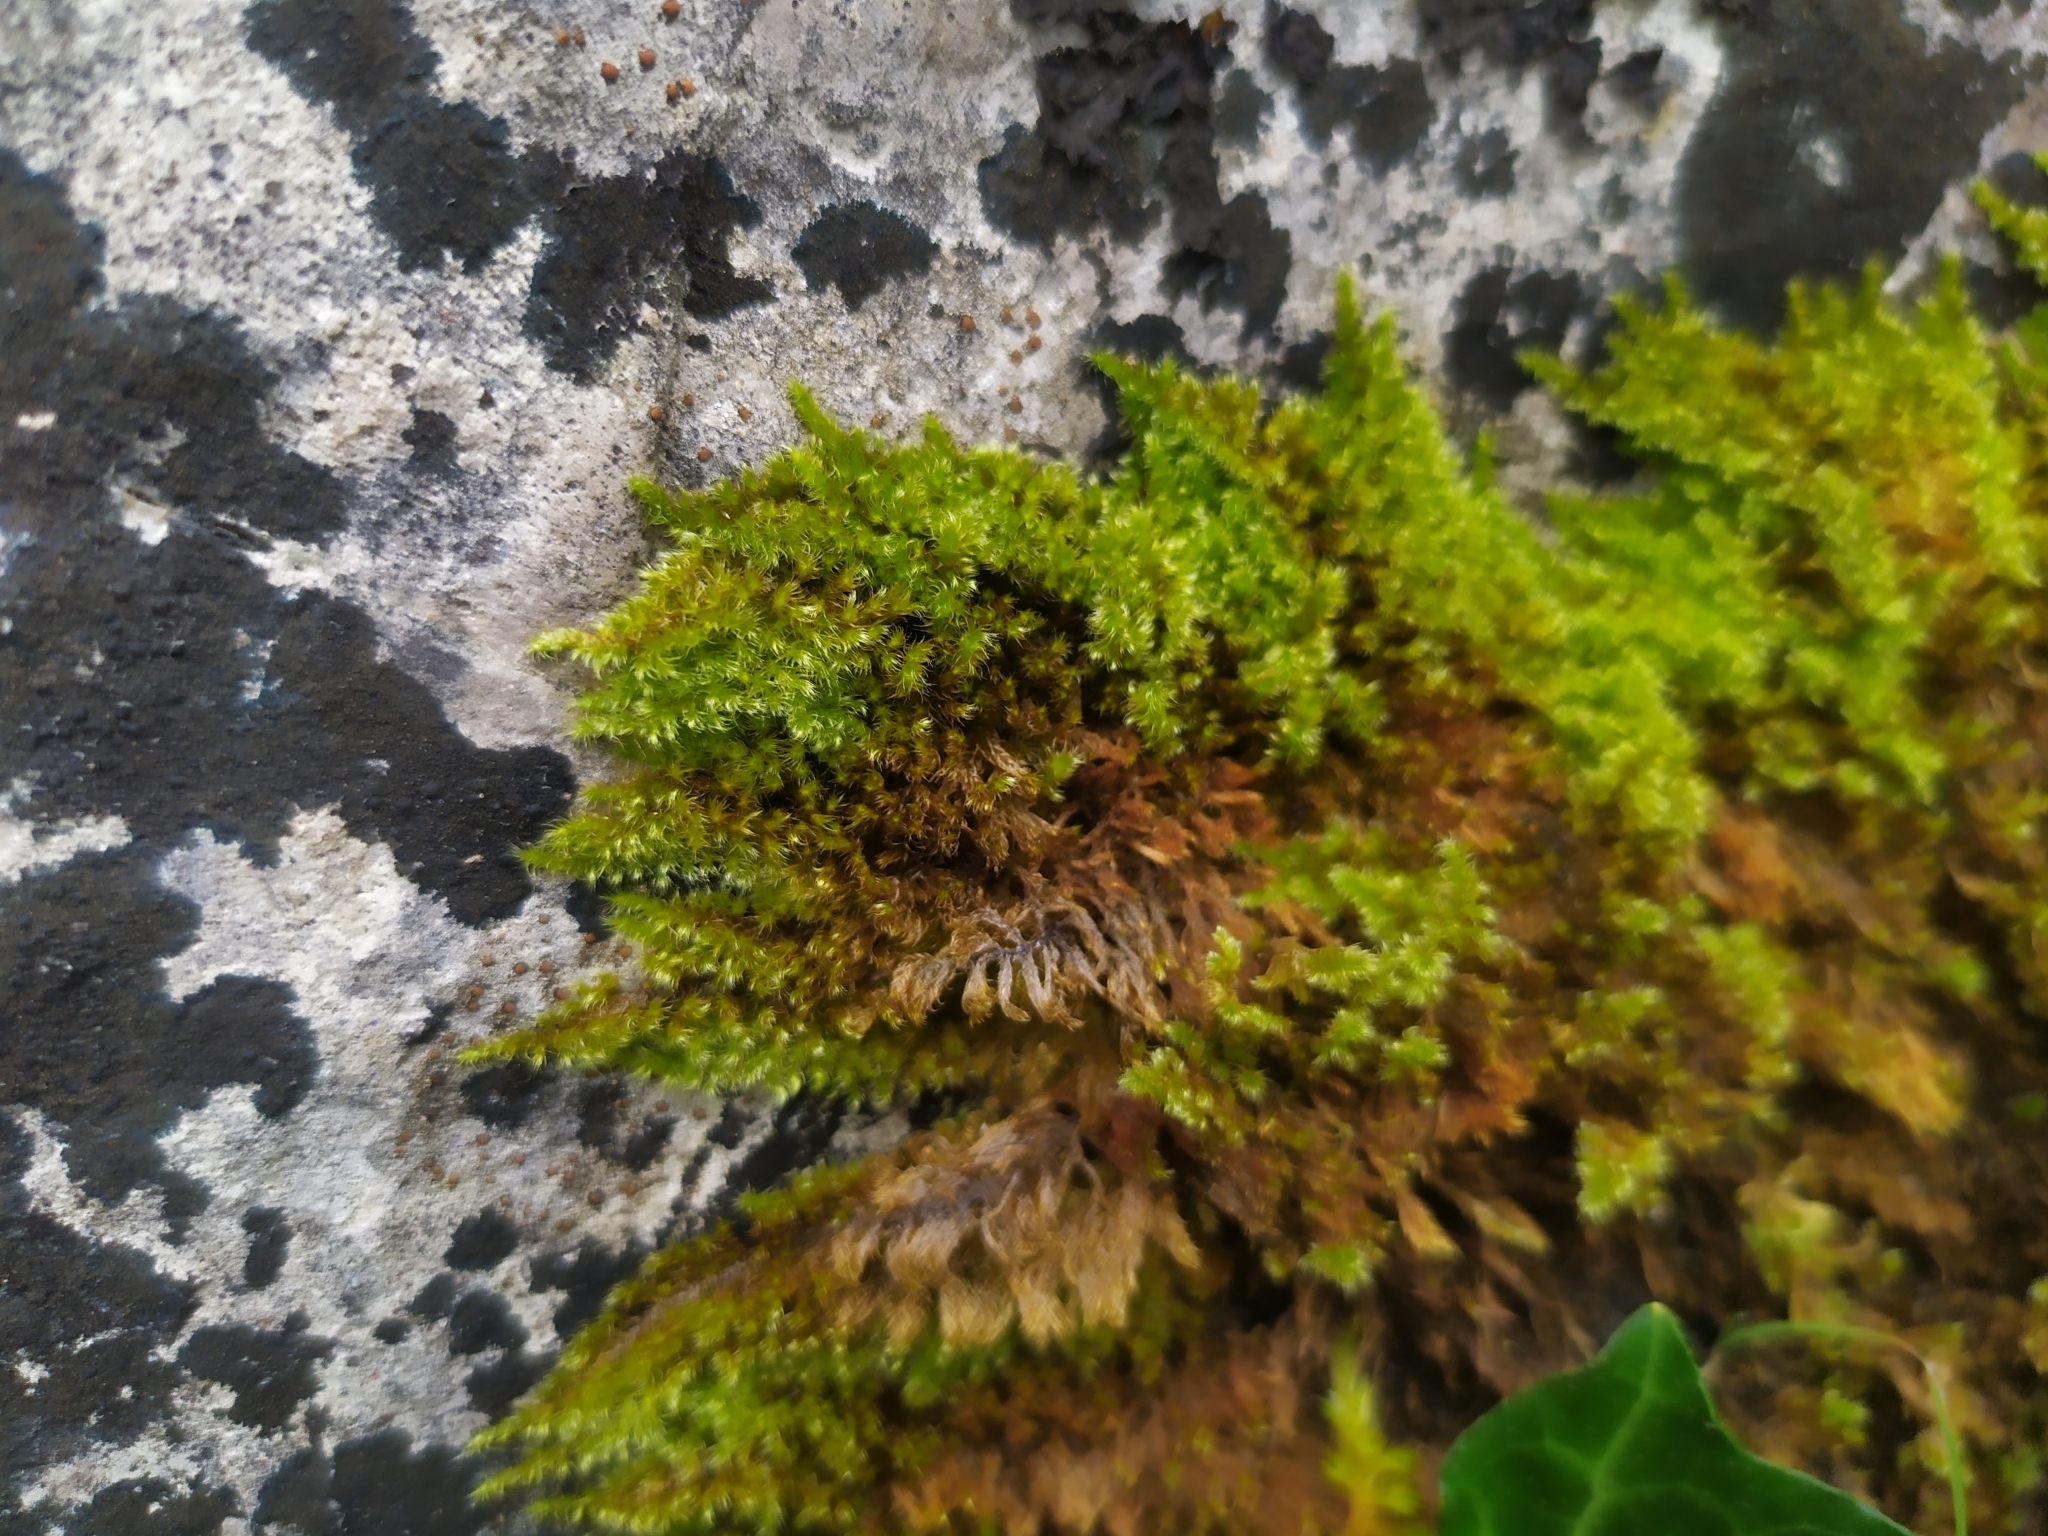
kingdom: Plantae
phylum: Bryophyta
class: Bryopsida
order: Hypnales
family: Myuriaceae
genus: Ctenidium
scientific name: Ctenidium molluscum
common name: Chalk comb-moss
